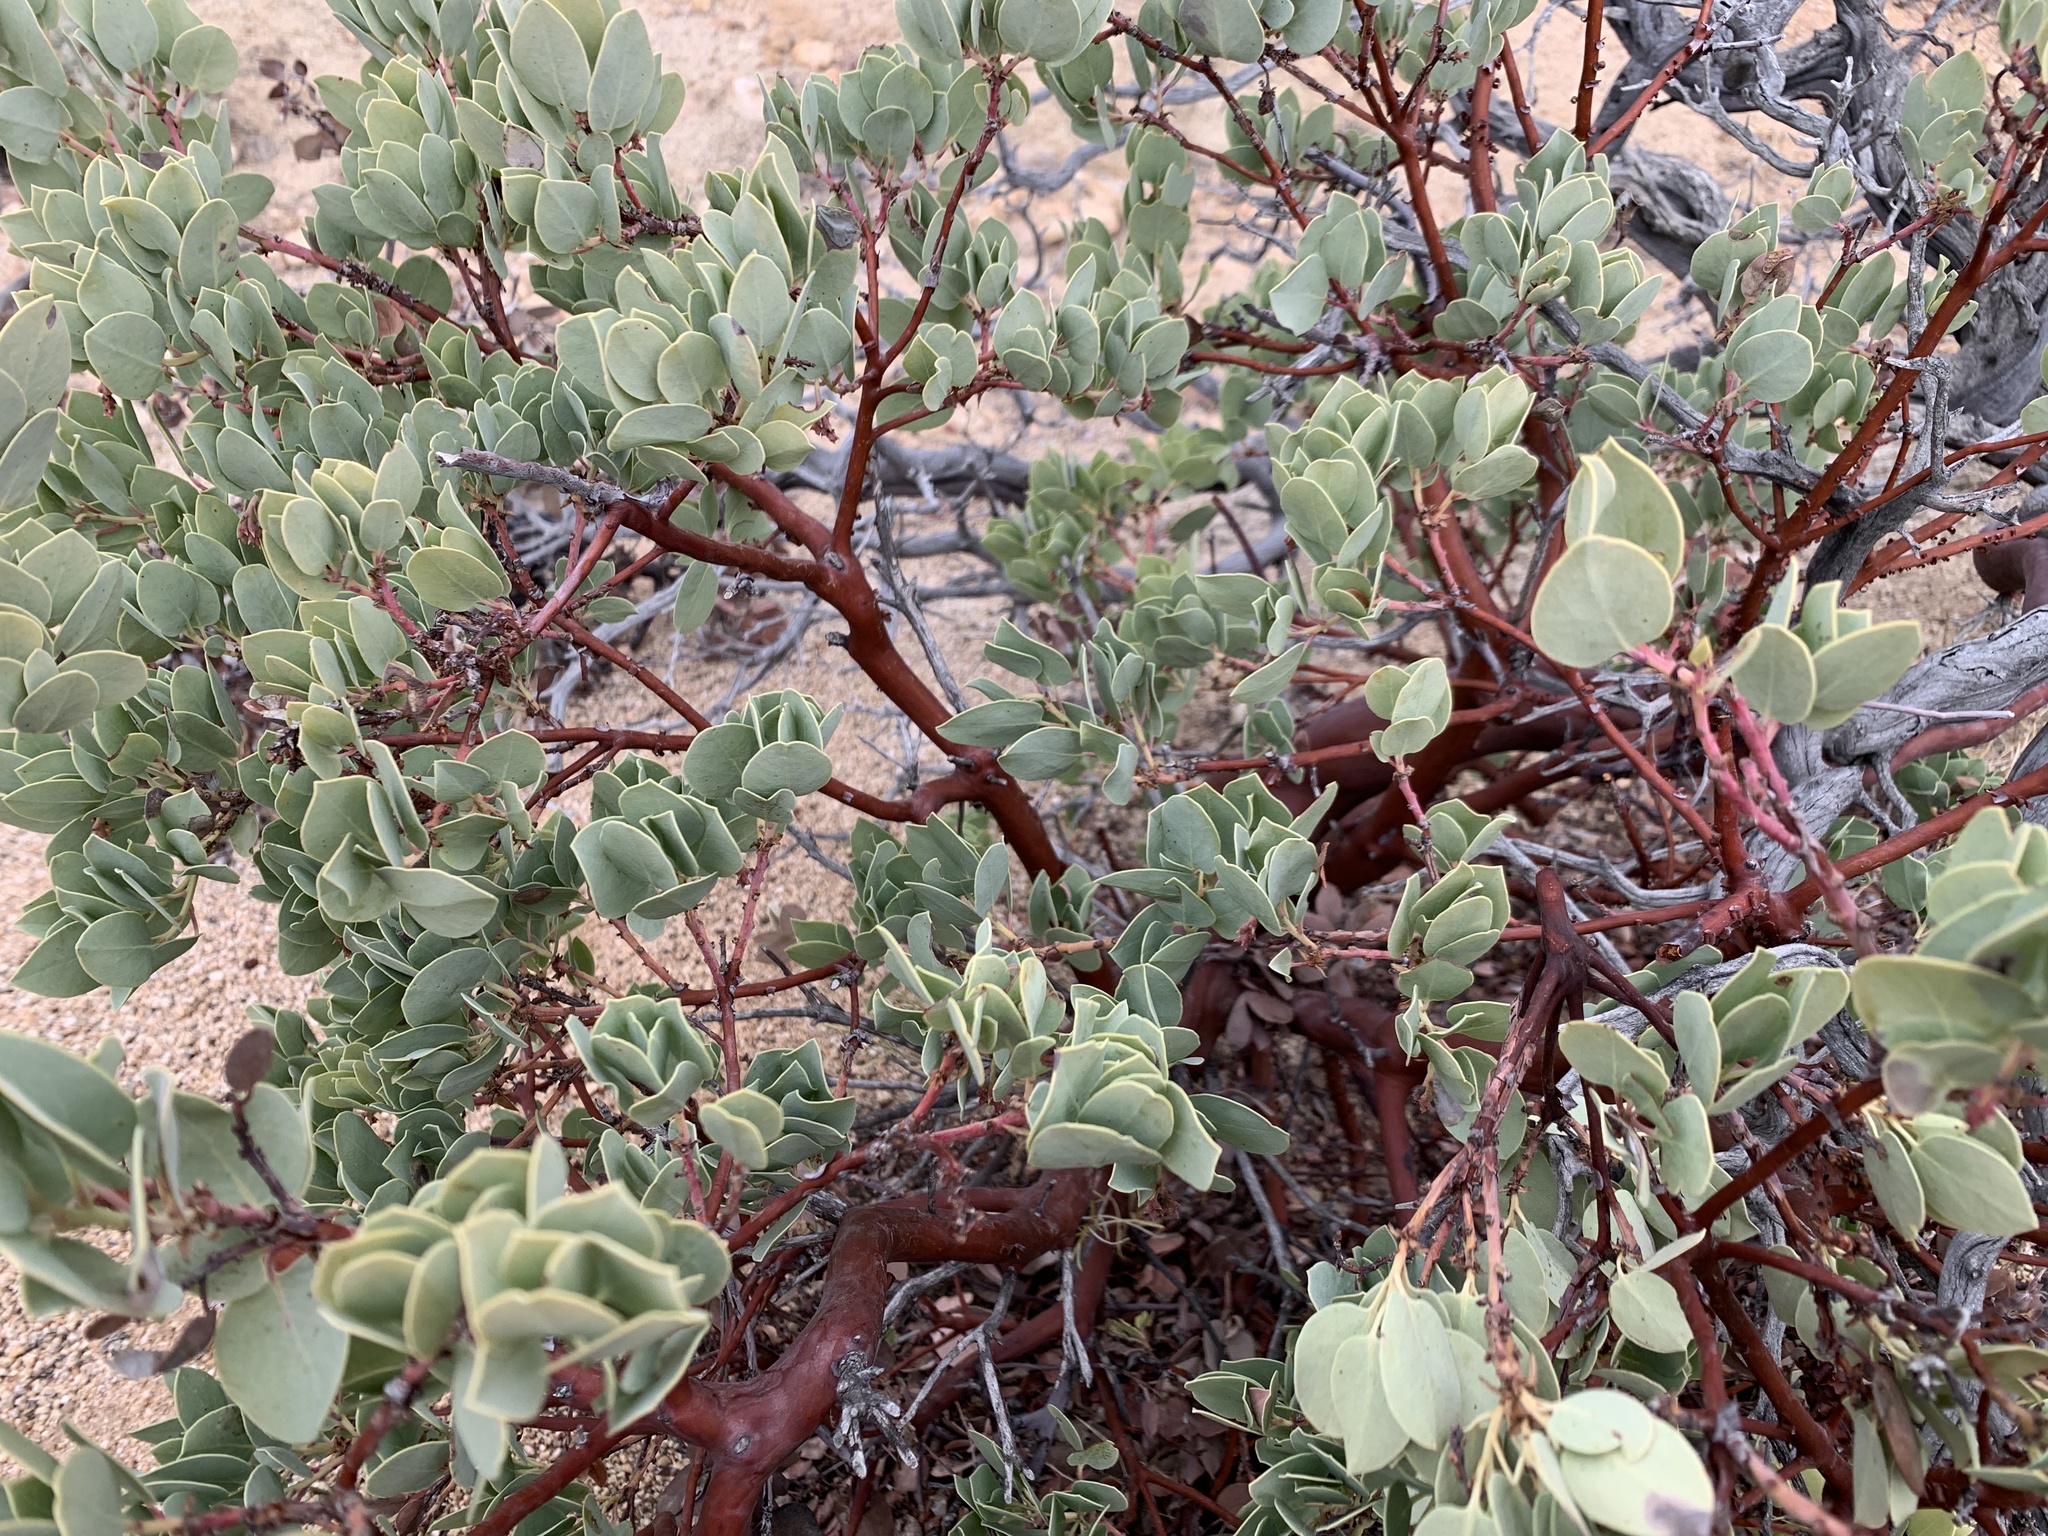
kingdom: Plantae
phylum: Tracheophyta
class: Magnoliopsida
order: Ericales
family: Ericaceae
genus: Arctostaphylos
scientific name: Arctostaphylos glauca
